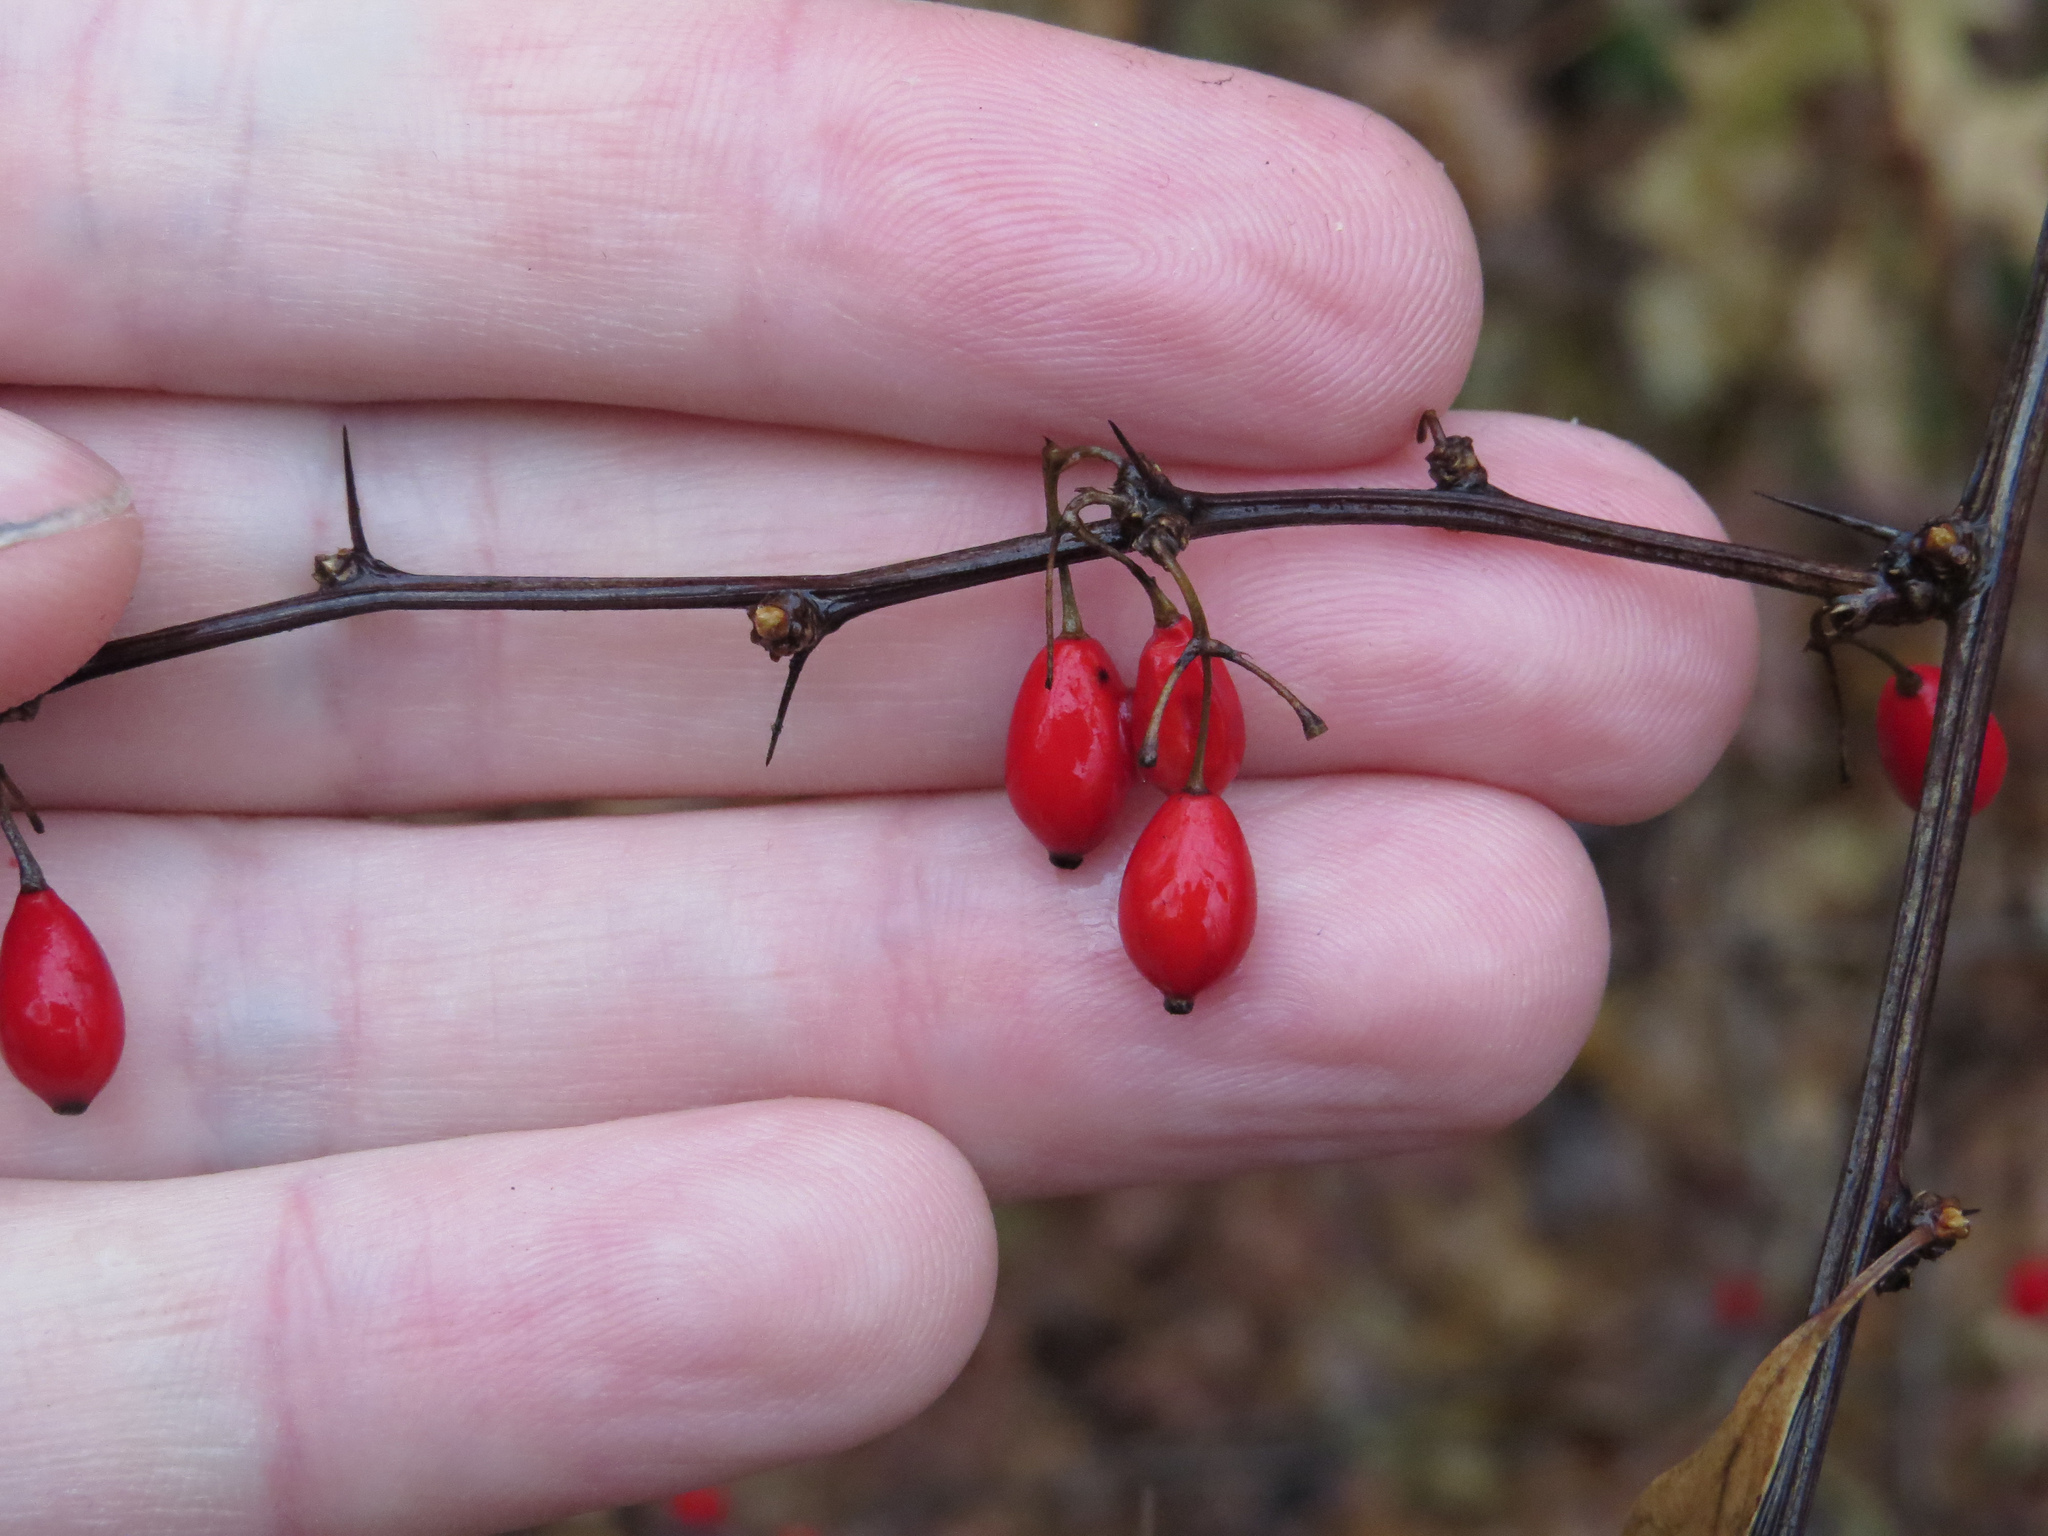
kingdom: Plantae
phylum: Tracheophyta
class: Magnoliopsida
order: Ranunculales
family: Berberidaceae
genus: Berberis
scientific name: Berberis thunbergii
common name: Japanese barberry
